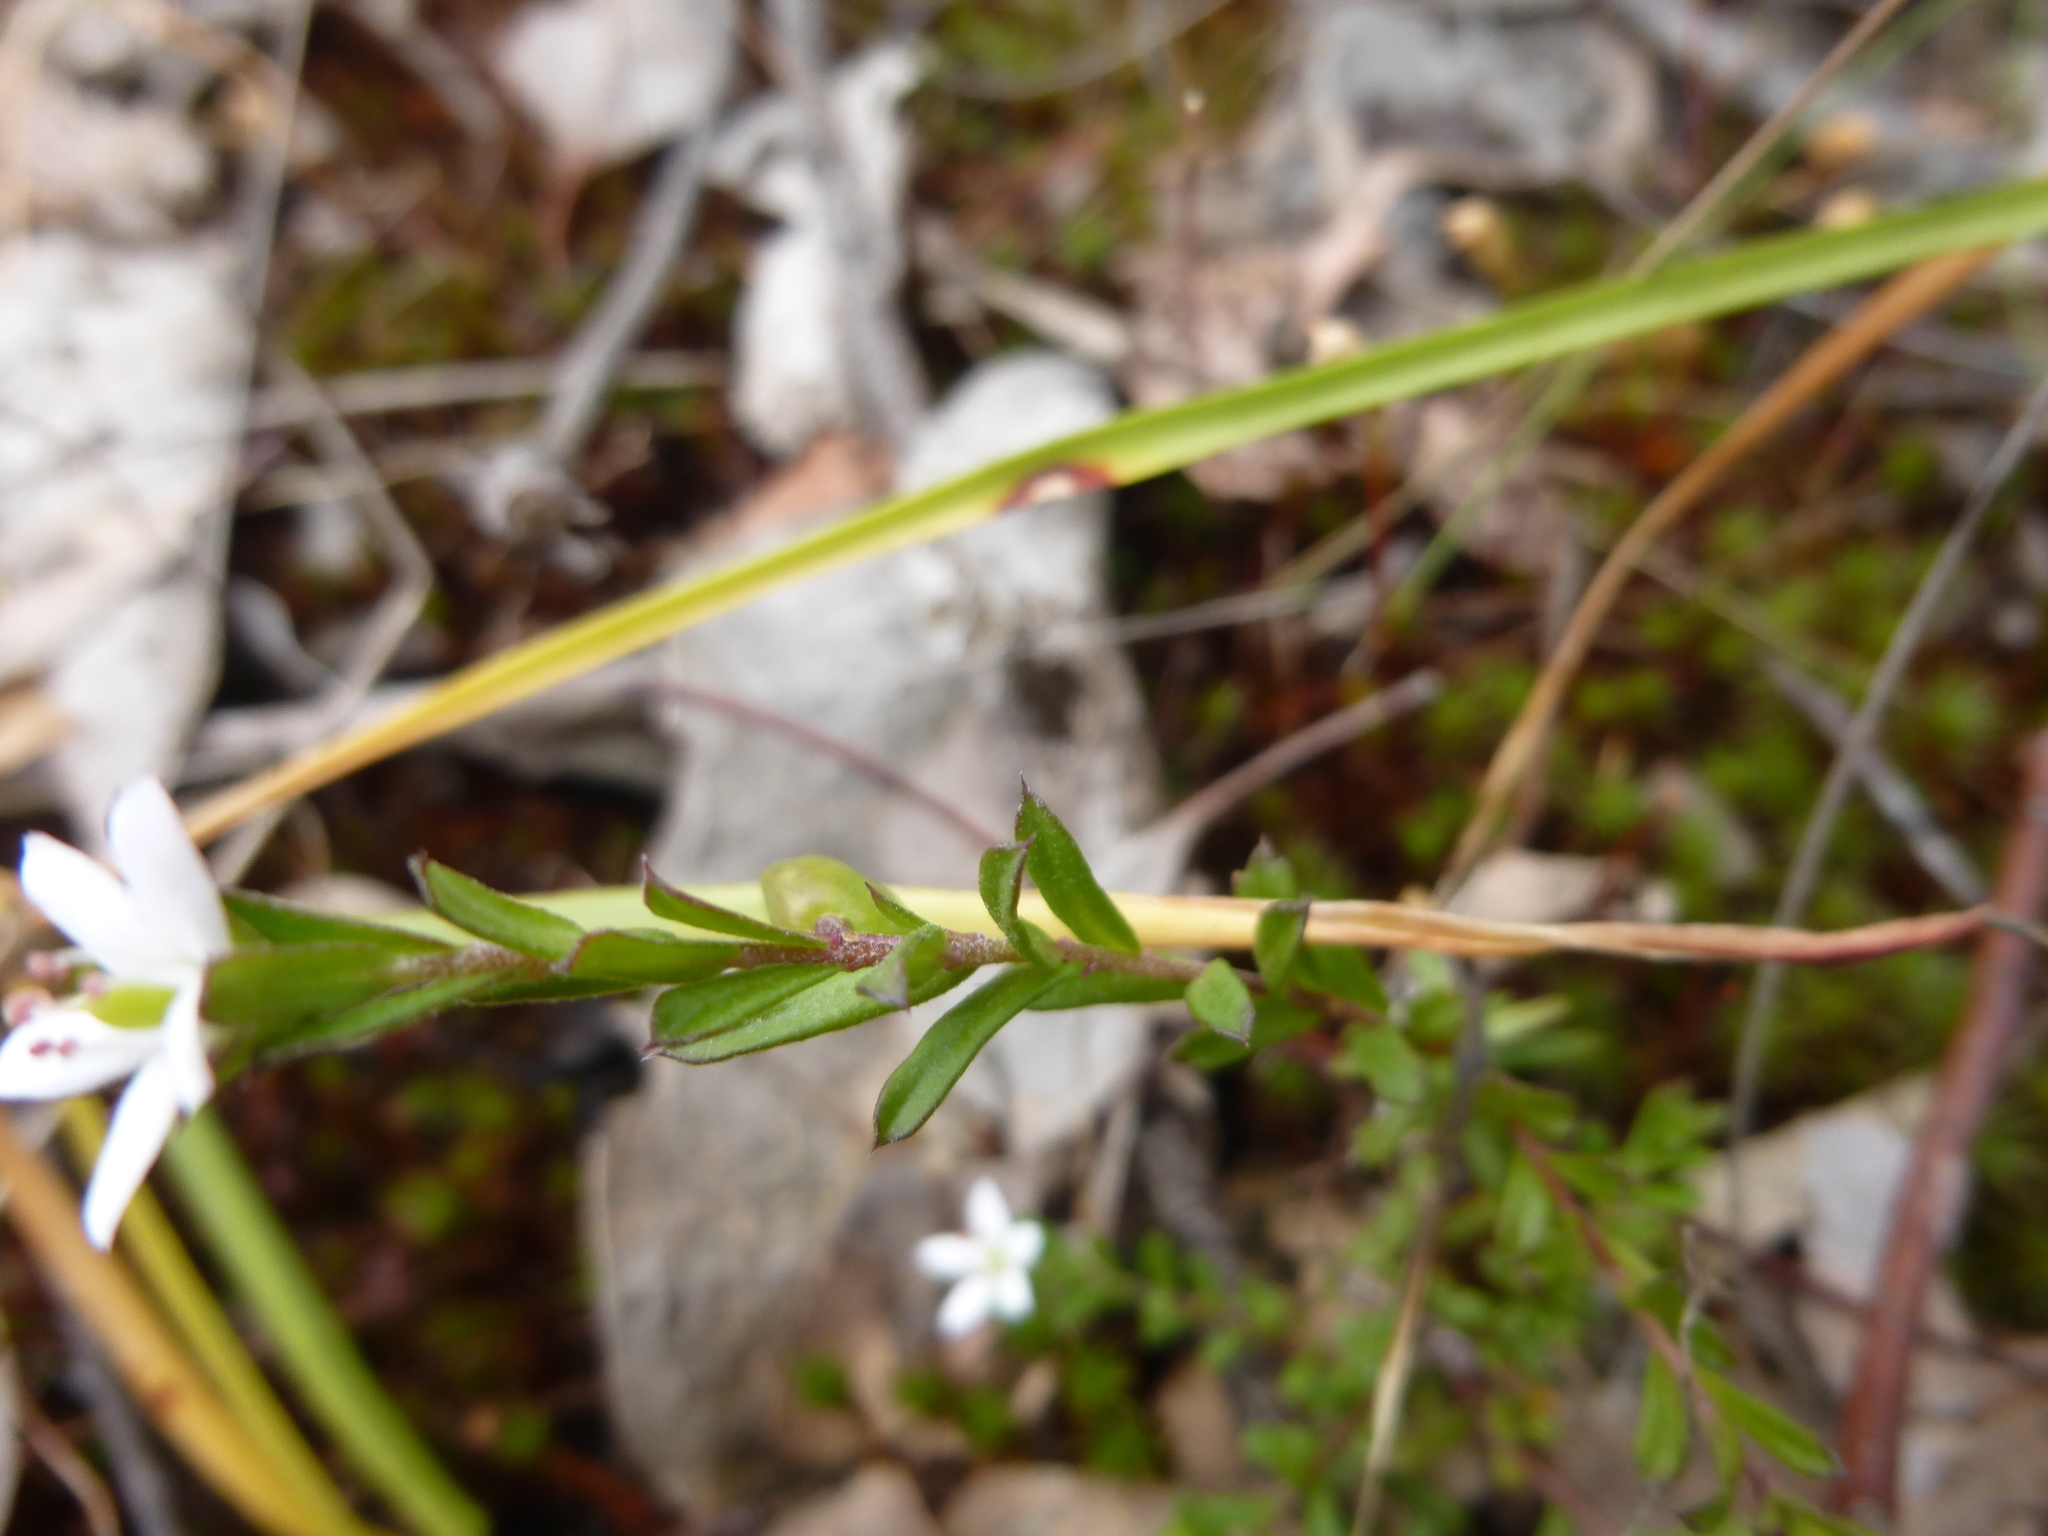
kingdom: Plantae
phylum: Tracheophyta
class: Magnoliopsida
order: Apiales
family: Pittosporaceae
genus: Rhytidosporum
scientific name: Rhytidosporum procumbens
